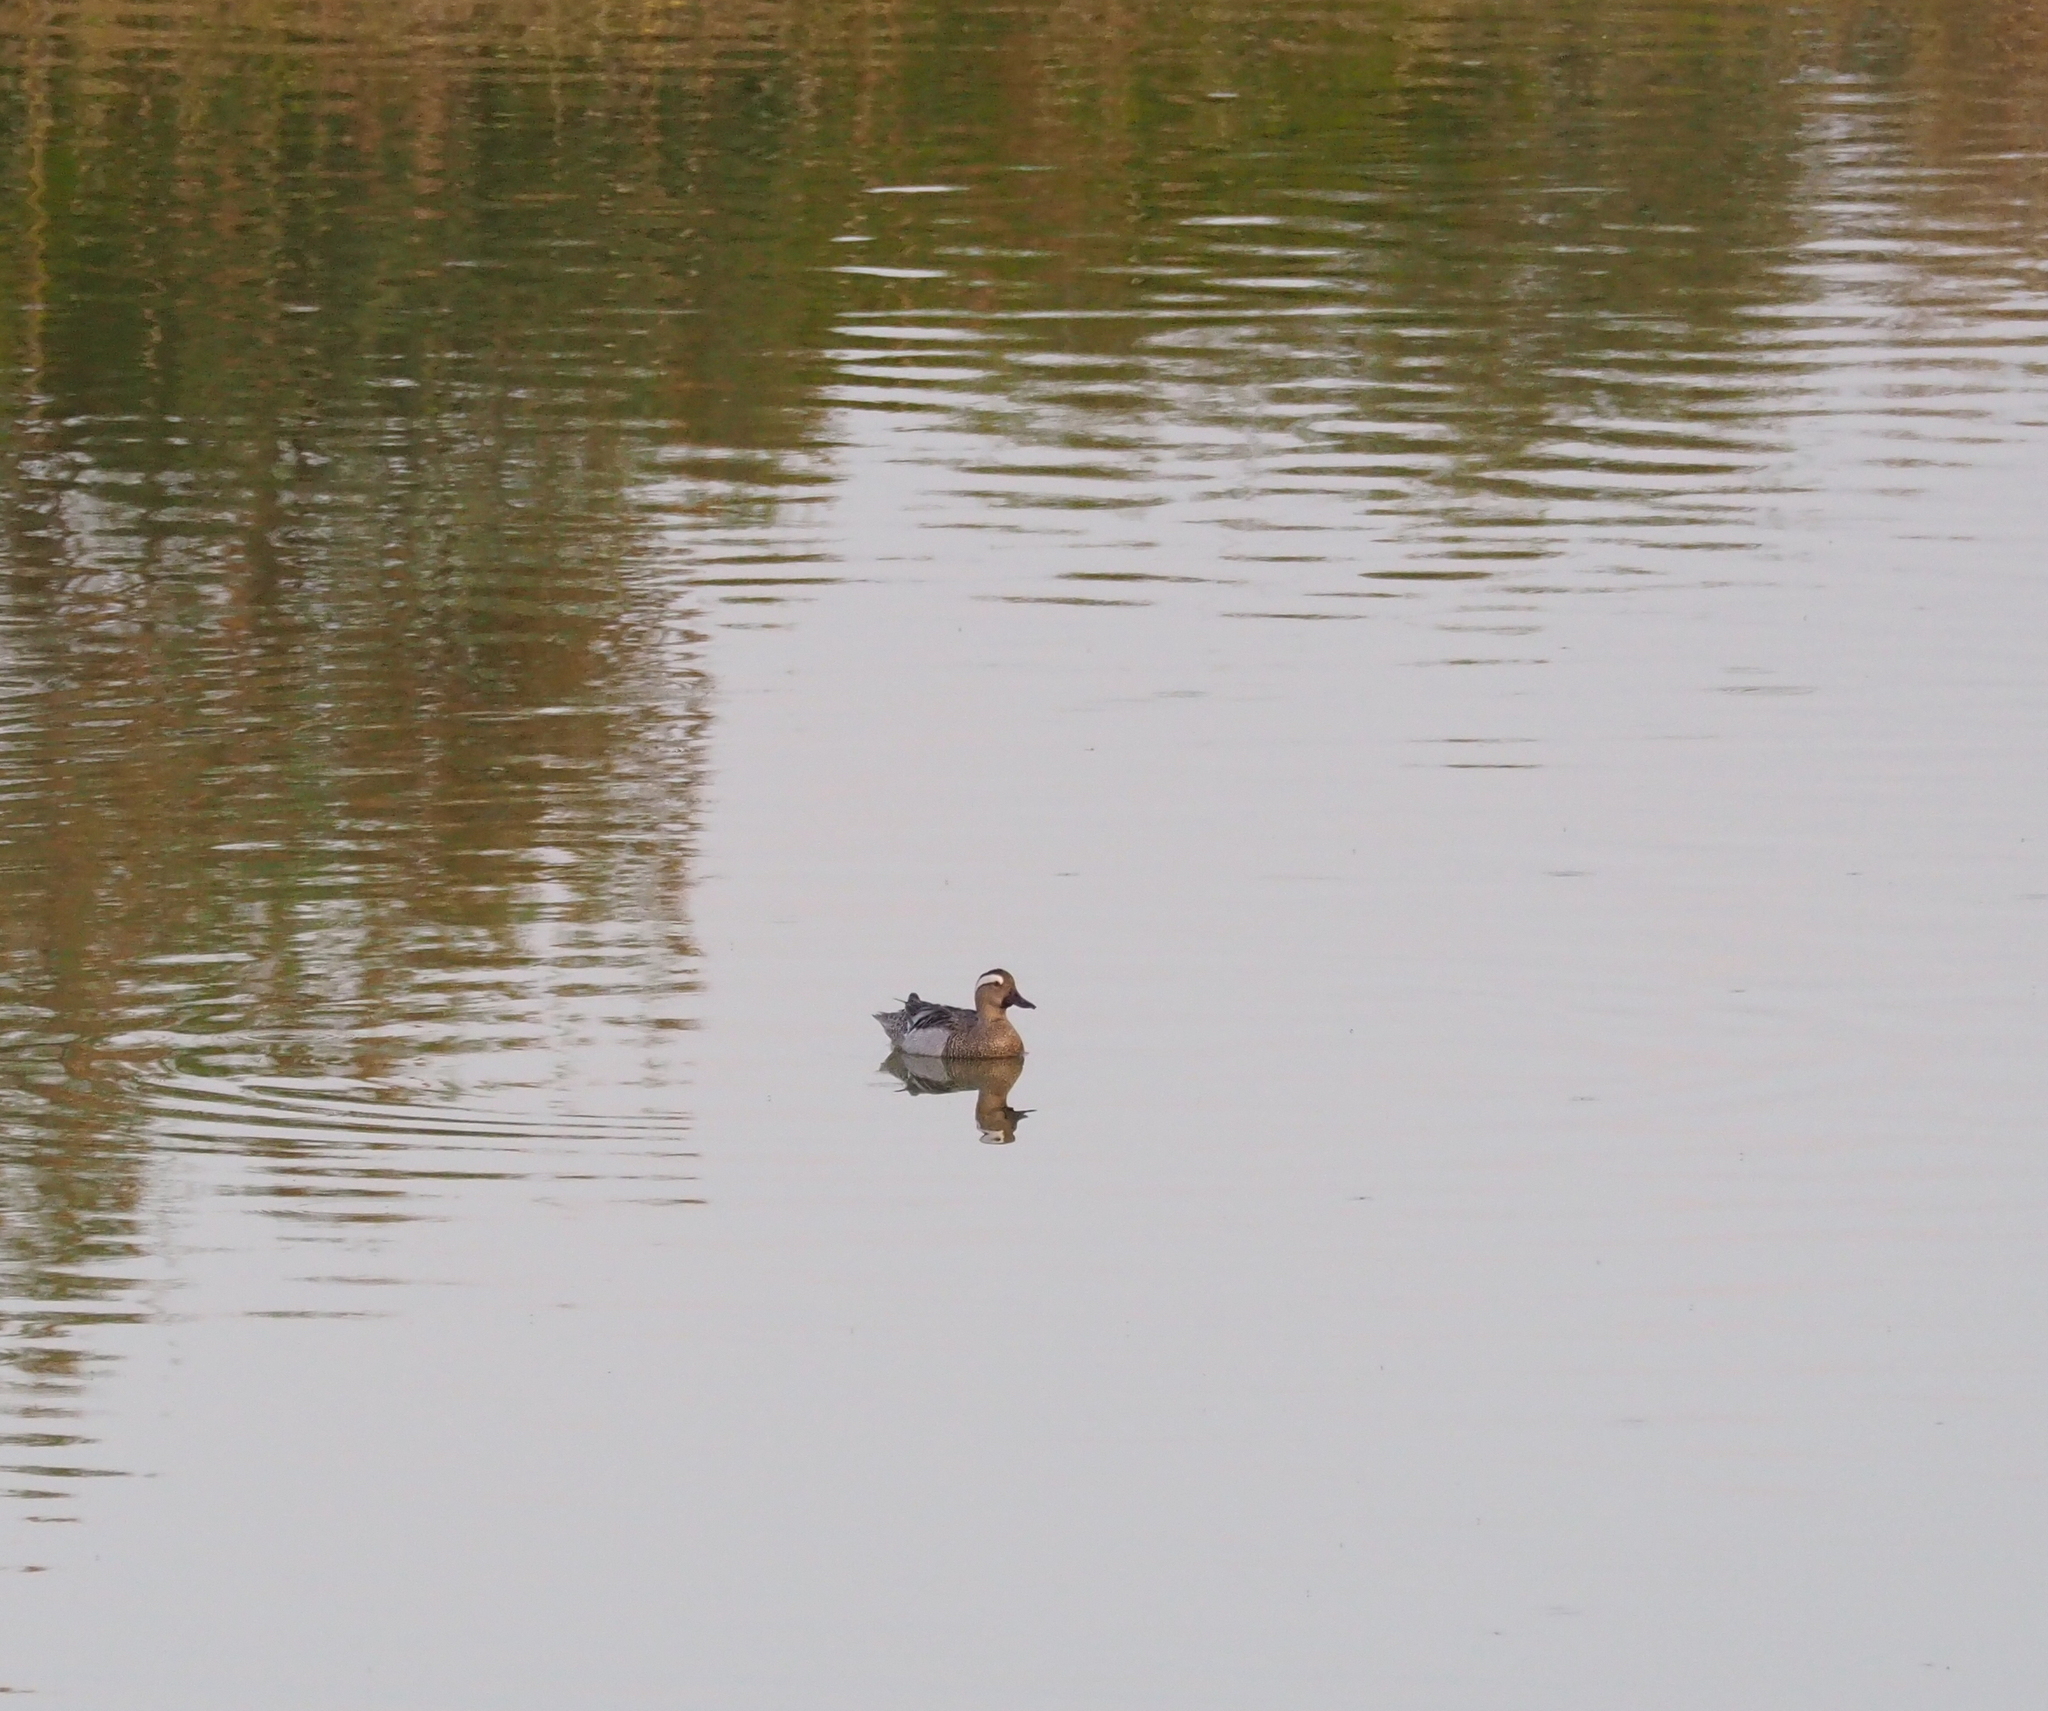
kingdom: Animalia
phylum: Chordata
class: Aves
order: Anseriformes
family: Anatidae
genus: Spatula
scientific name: Spatula querquedula
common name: Garganey
